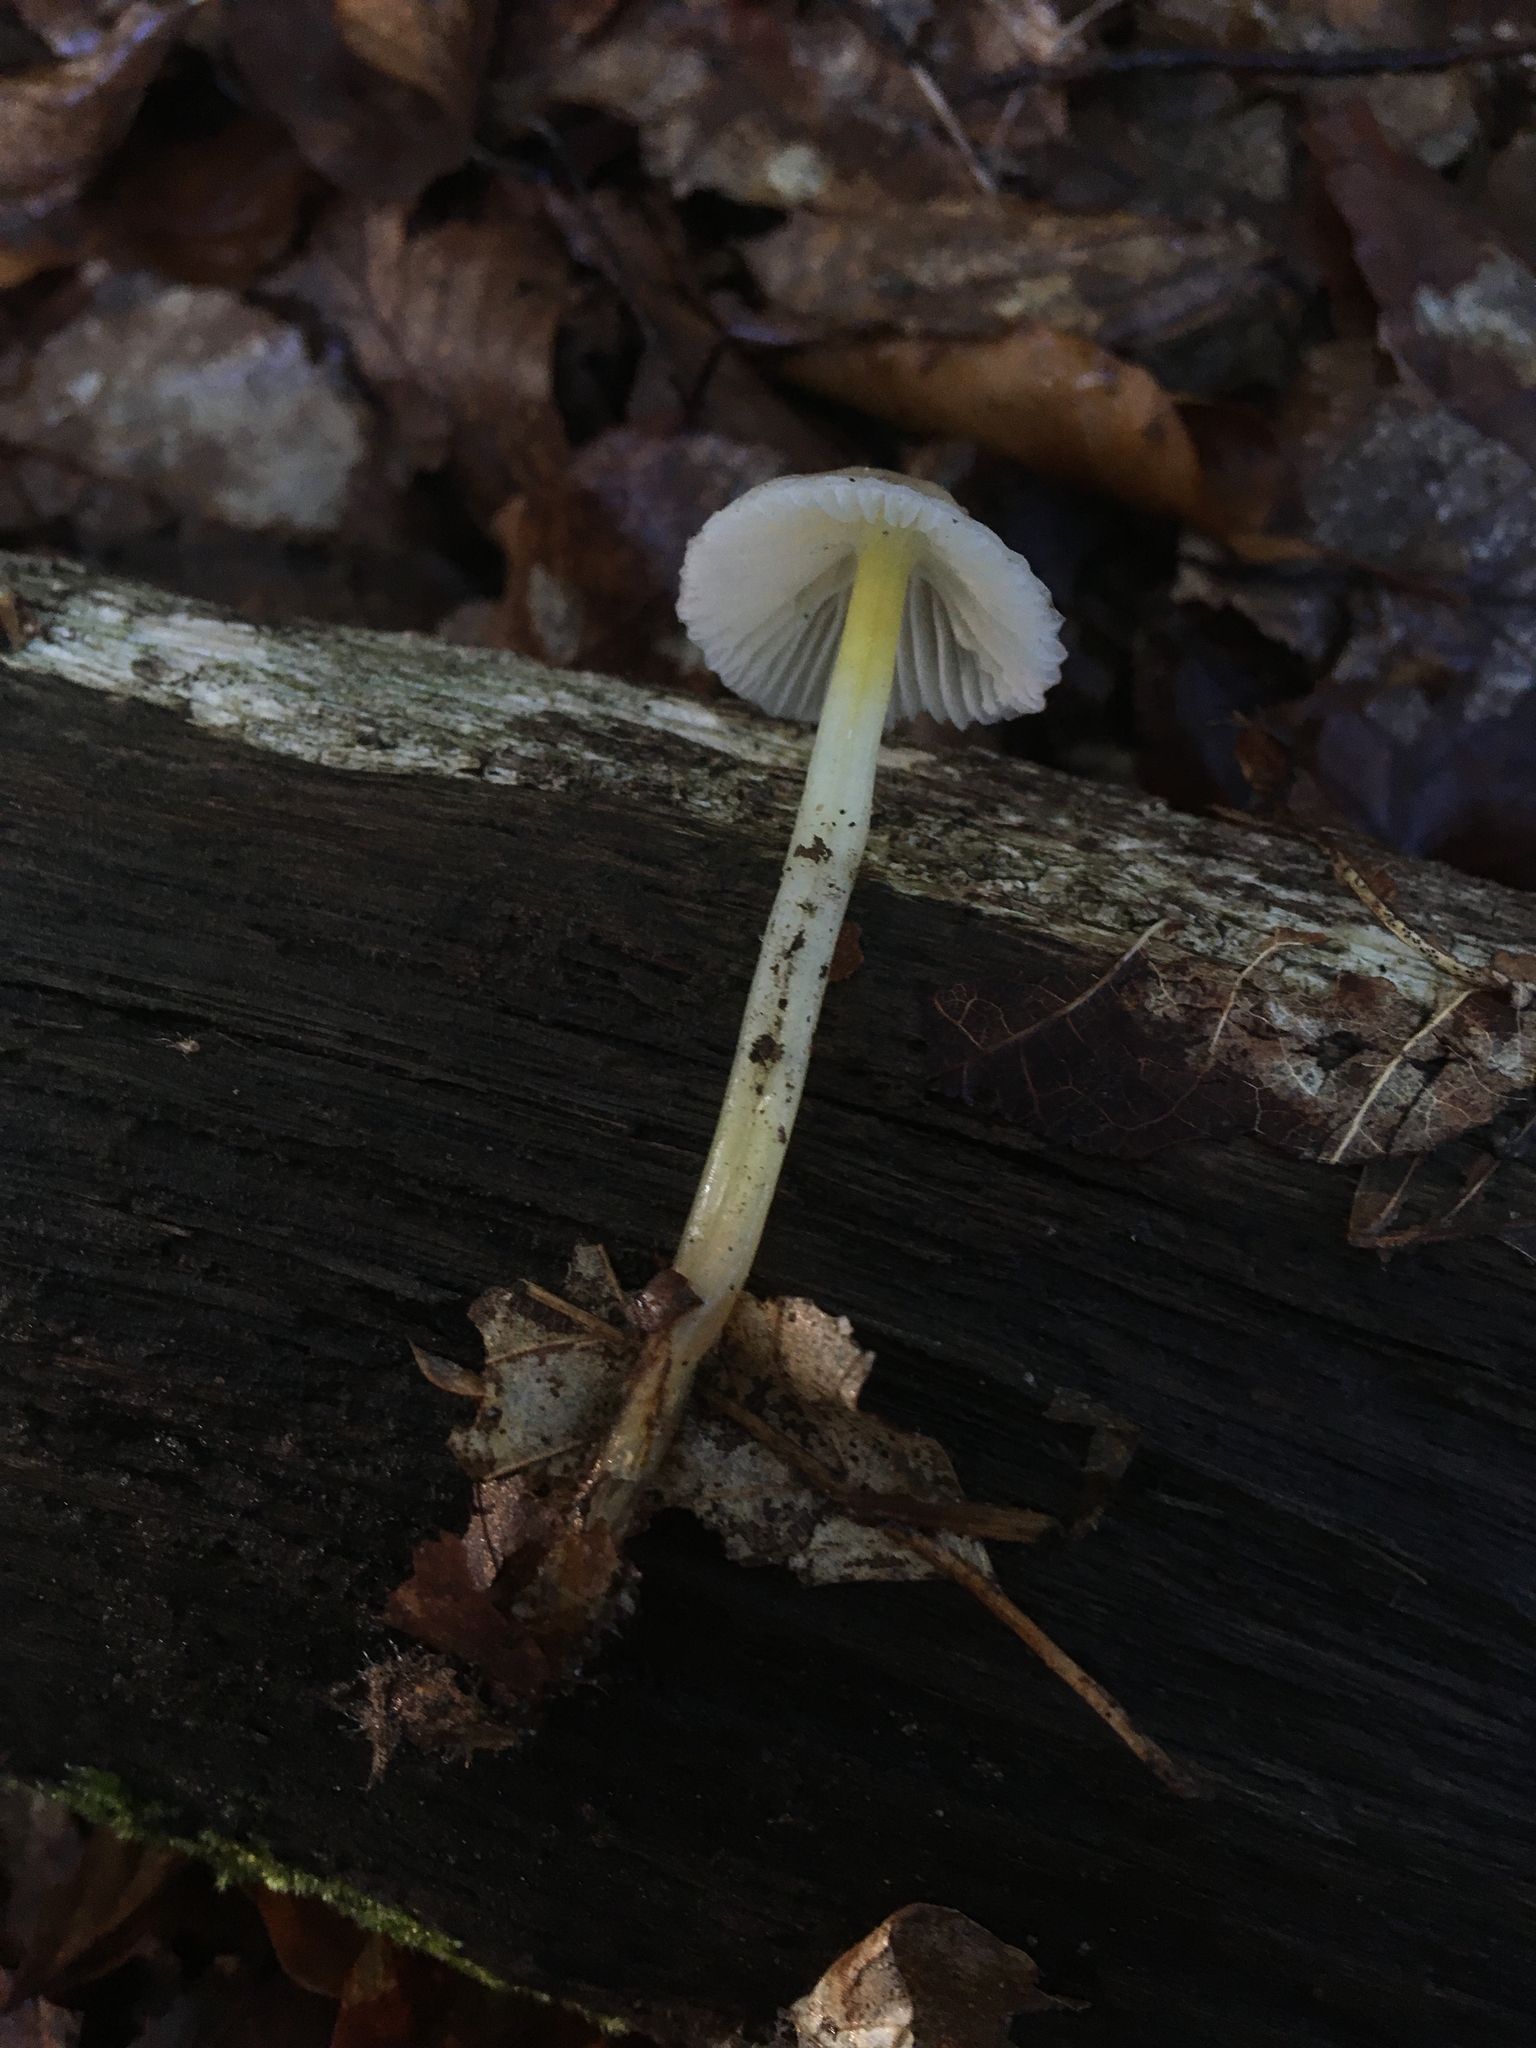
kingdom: Fungi
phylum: Basidiomycota
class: Agaricomycetes
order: Agaricales
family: Mycenaceae
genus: Mycena
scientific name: Mycena epipterygia
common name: Yellowleg bonnet
